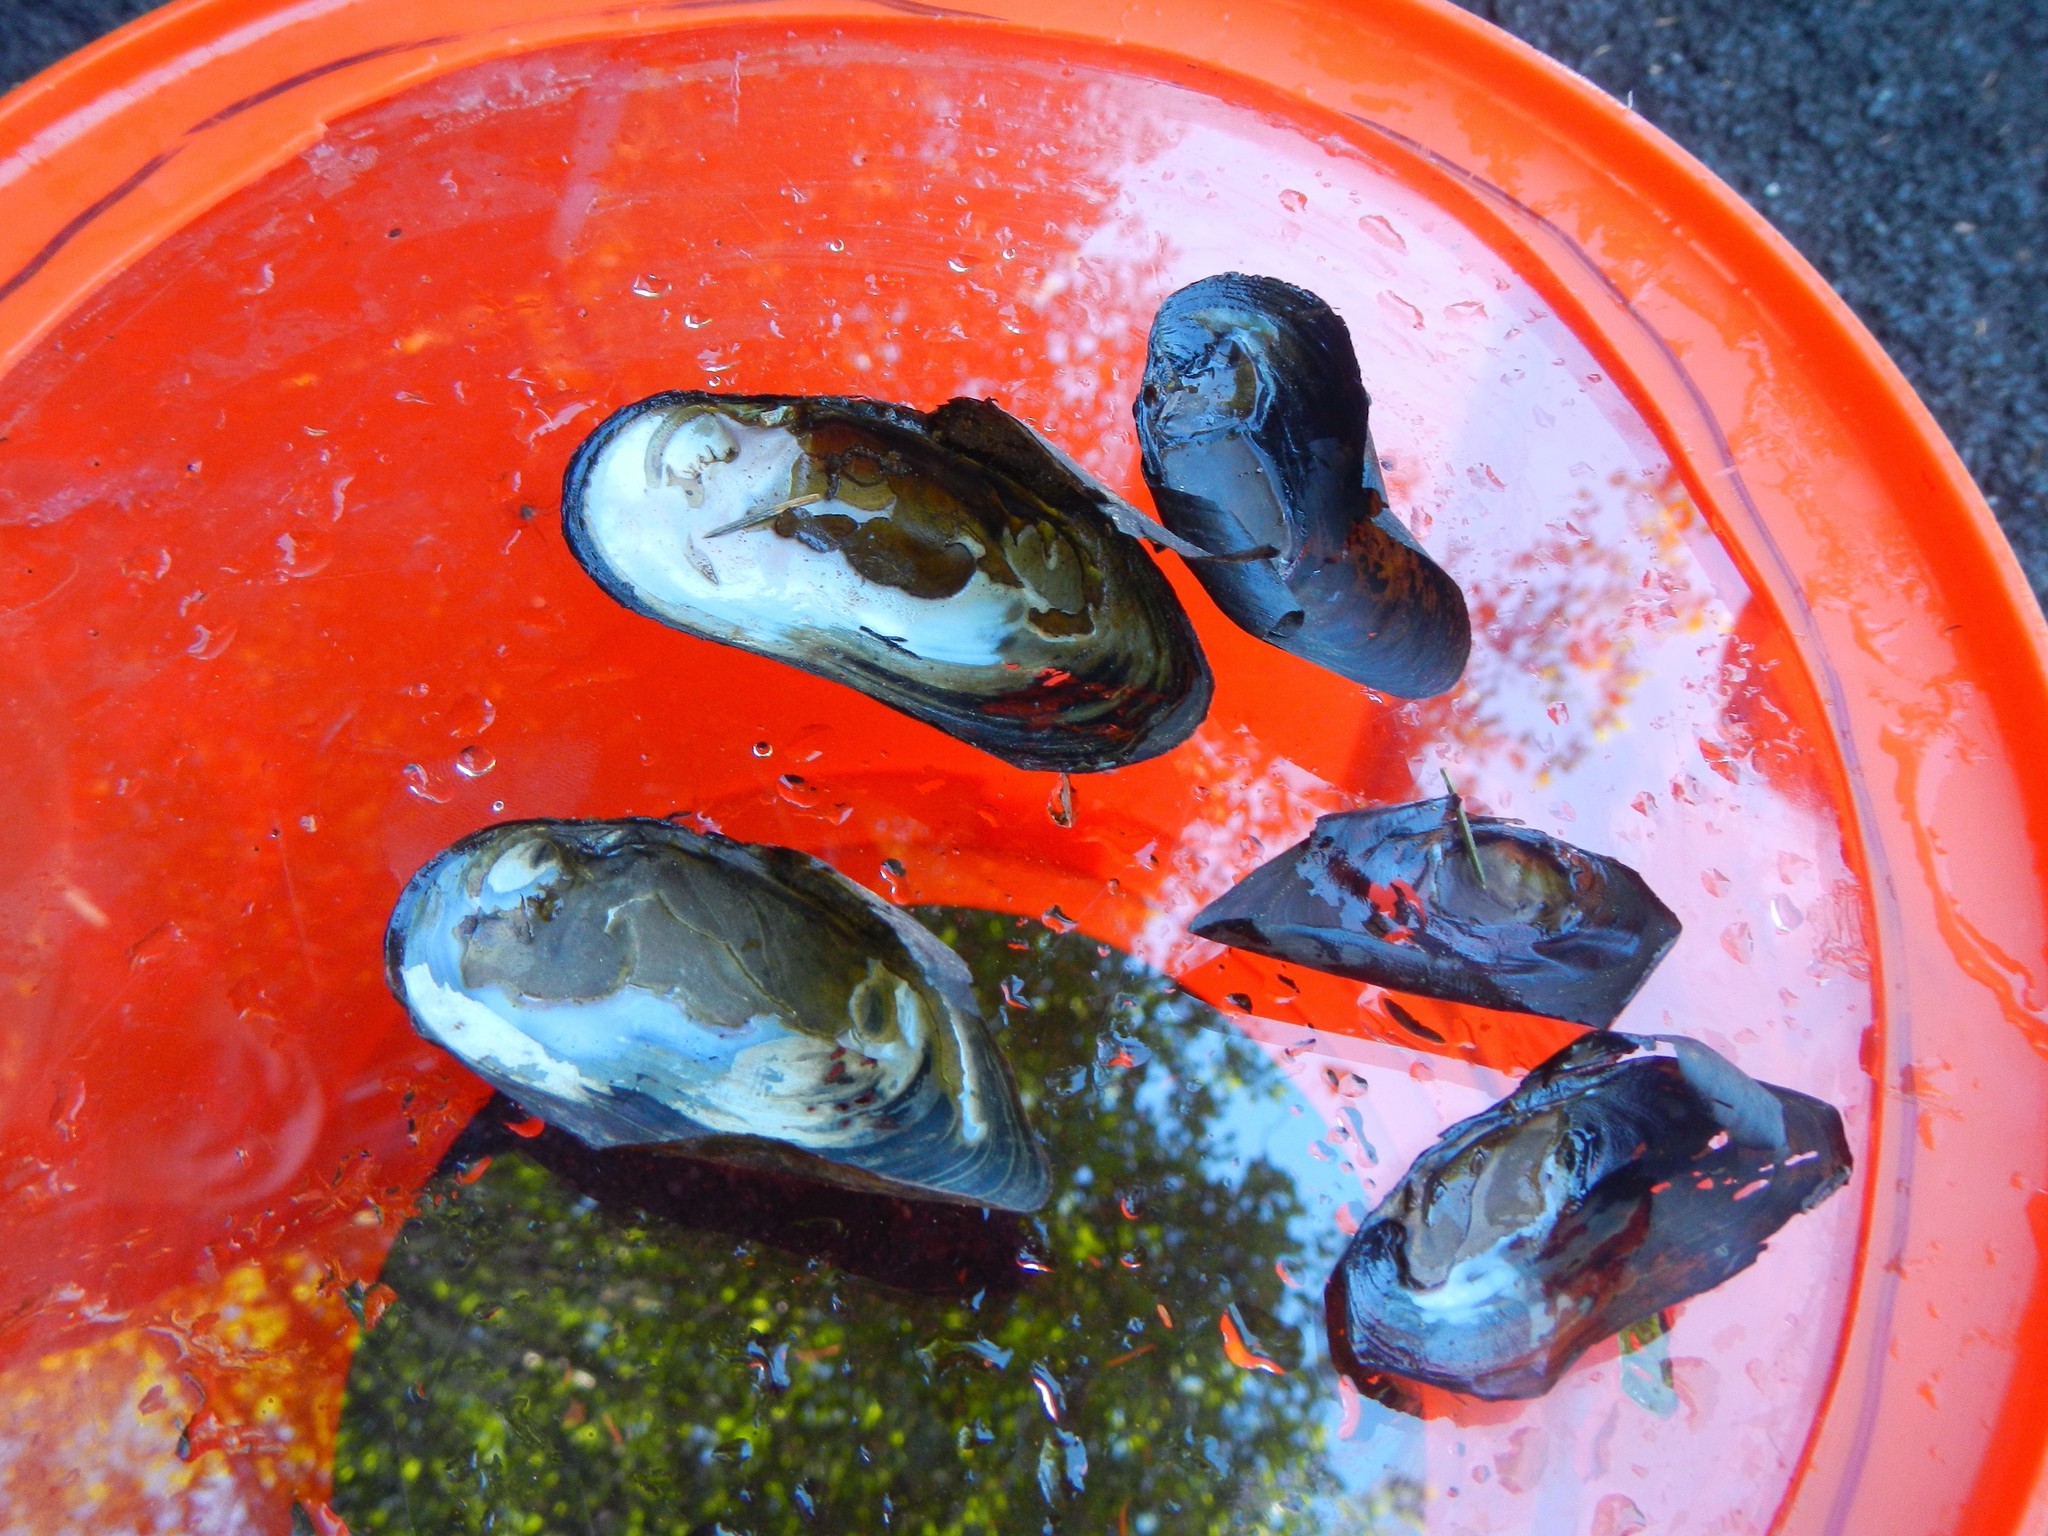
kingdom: Animalia
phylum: Mollusca
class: Bivalvia
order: Unionida
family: Margaritiferidae
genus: Margaritifera
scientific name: Margaritifera falcata
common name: Western pearlshell
